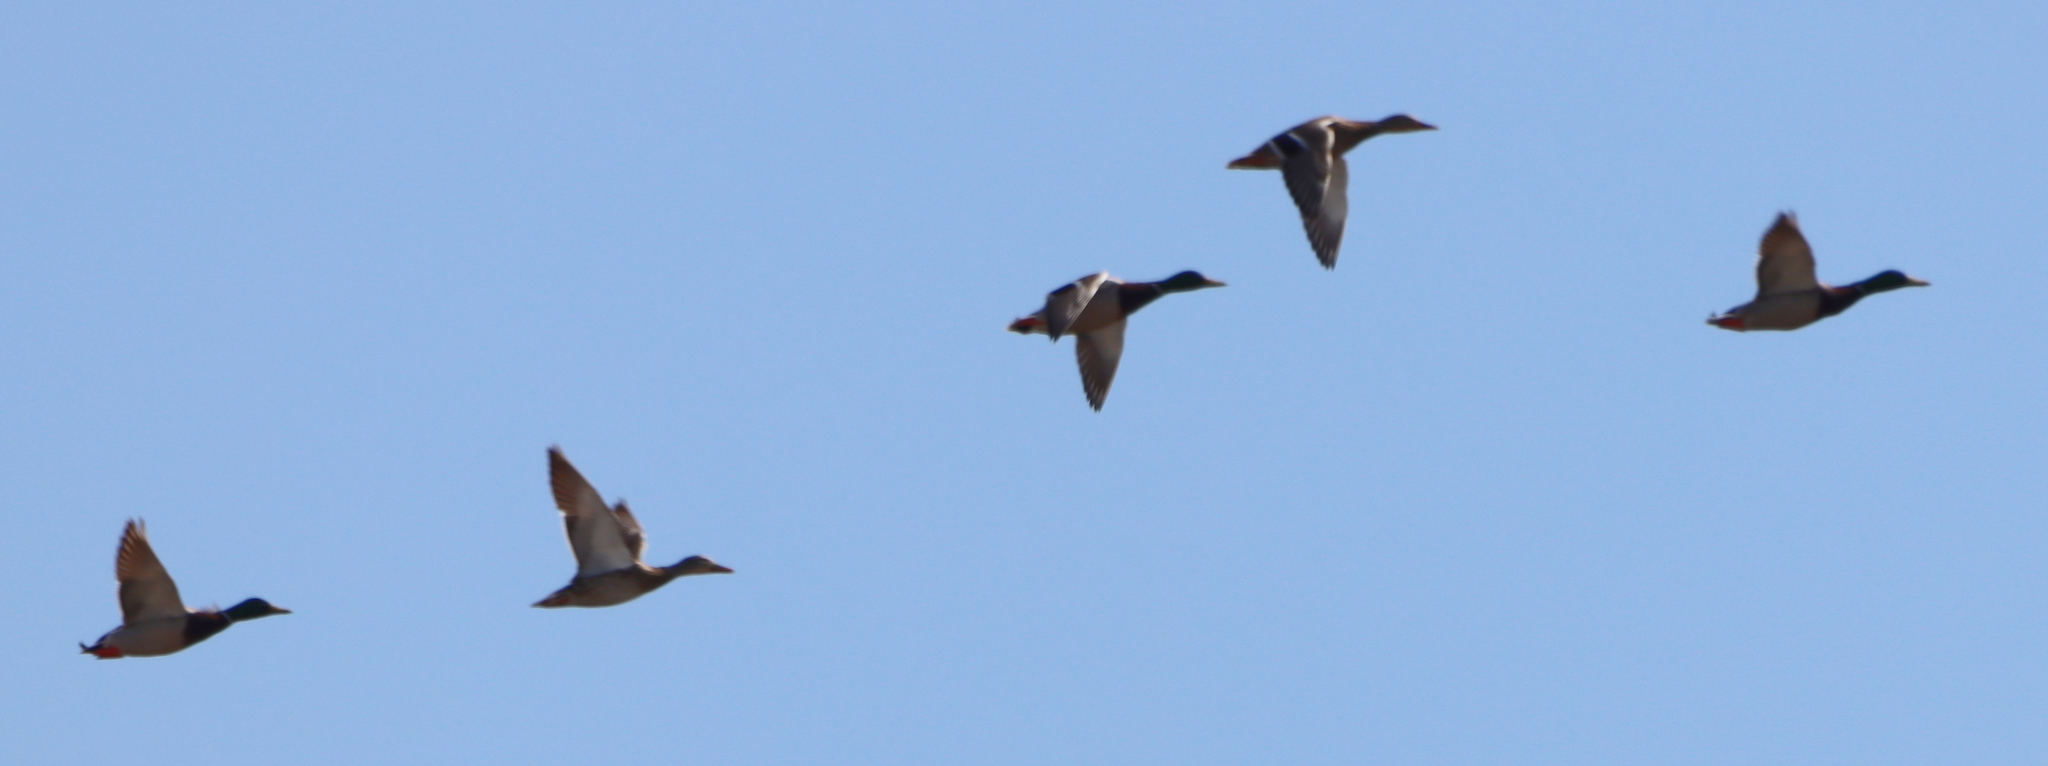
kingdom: Animalia
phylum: Chordata
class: Aves
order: Anseriformes
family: Anatidae
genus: Anas
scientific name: Anas platyrhynchos
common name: Mallard
